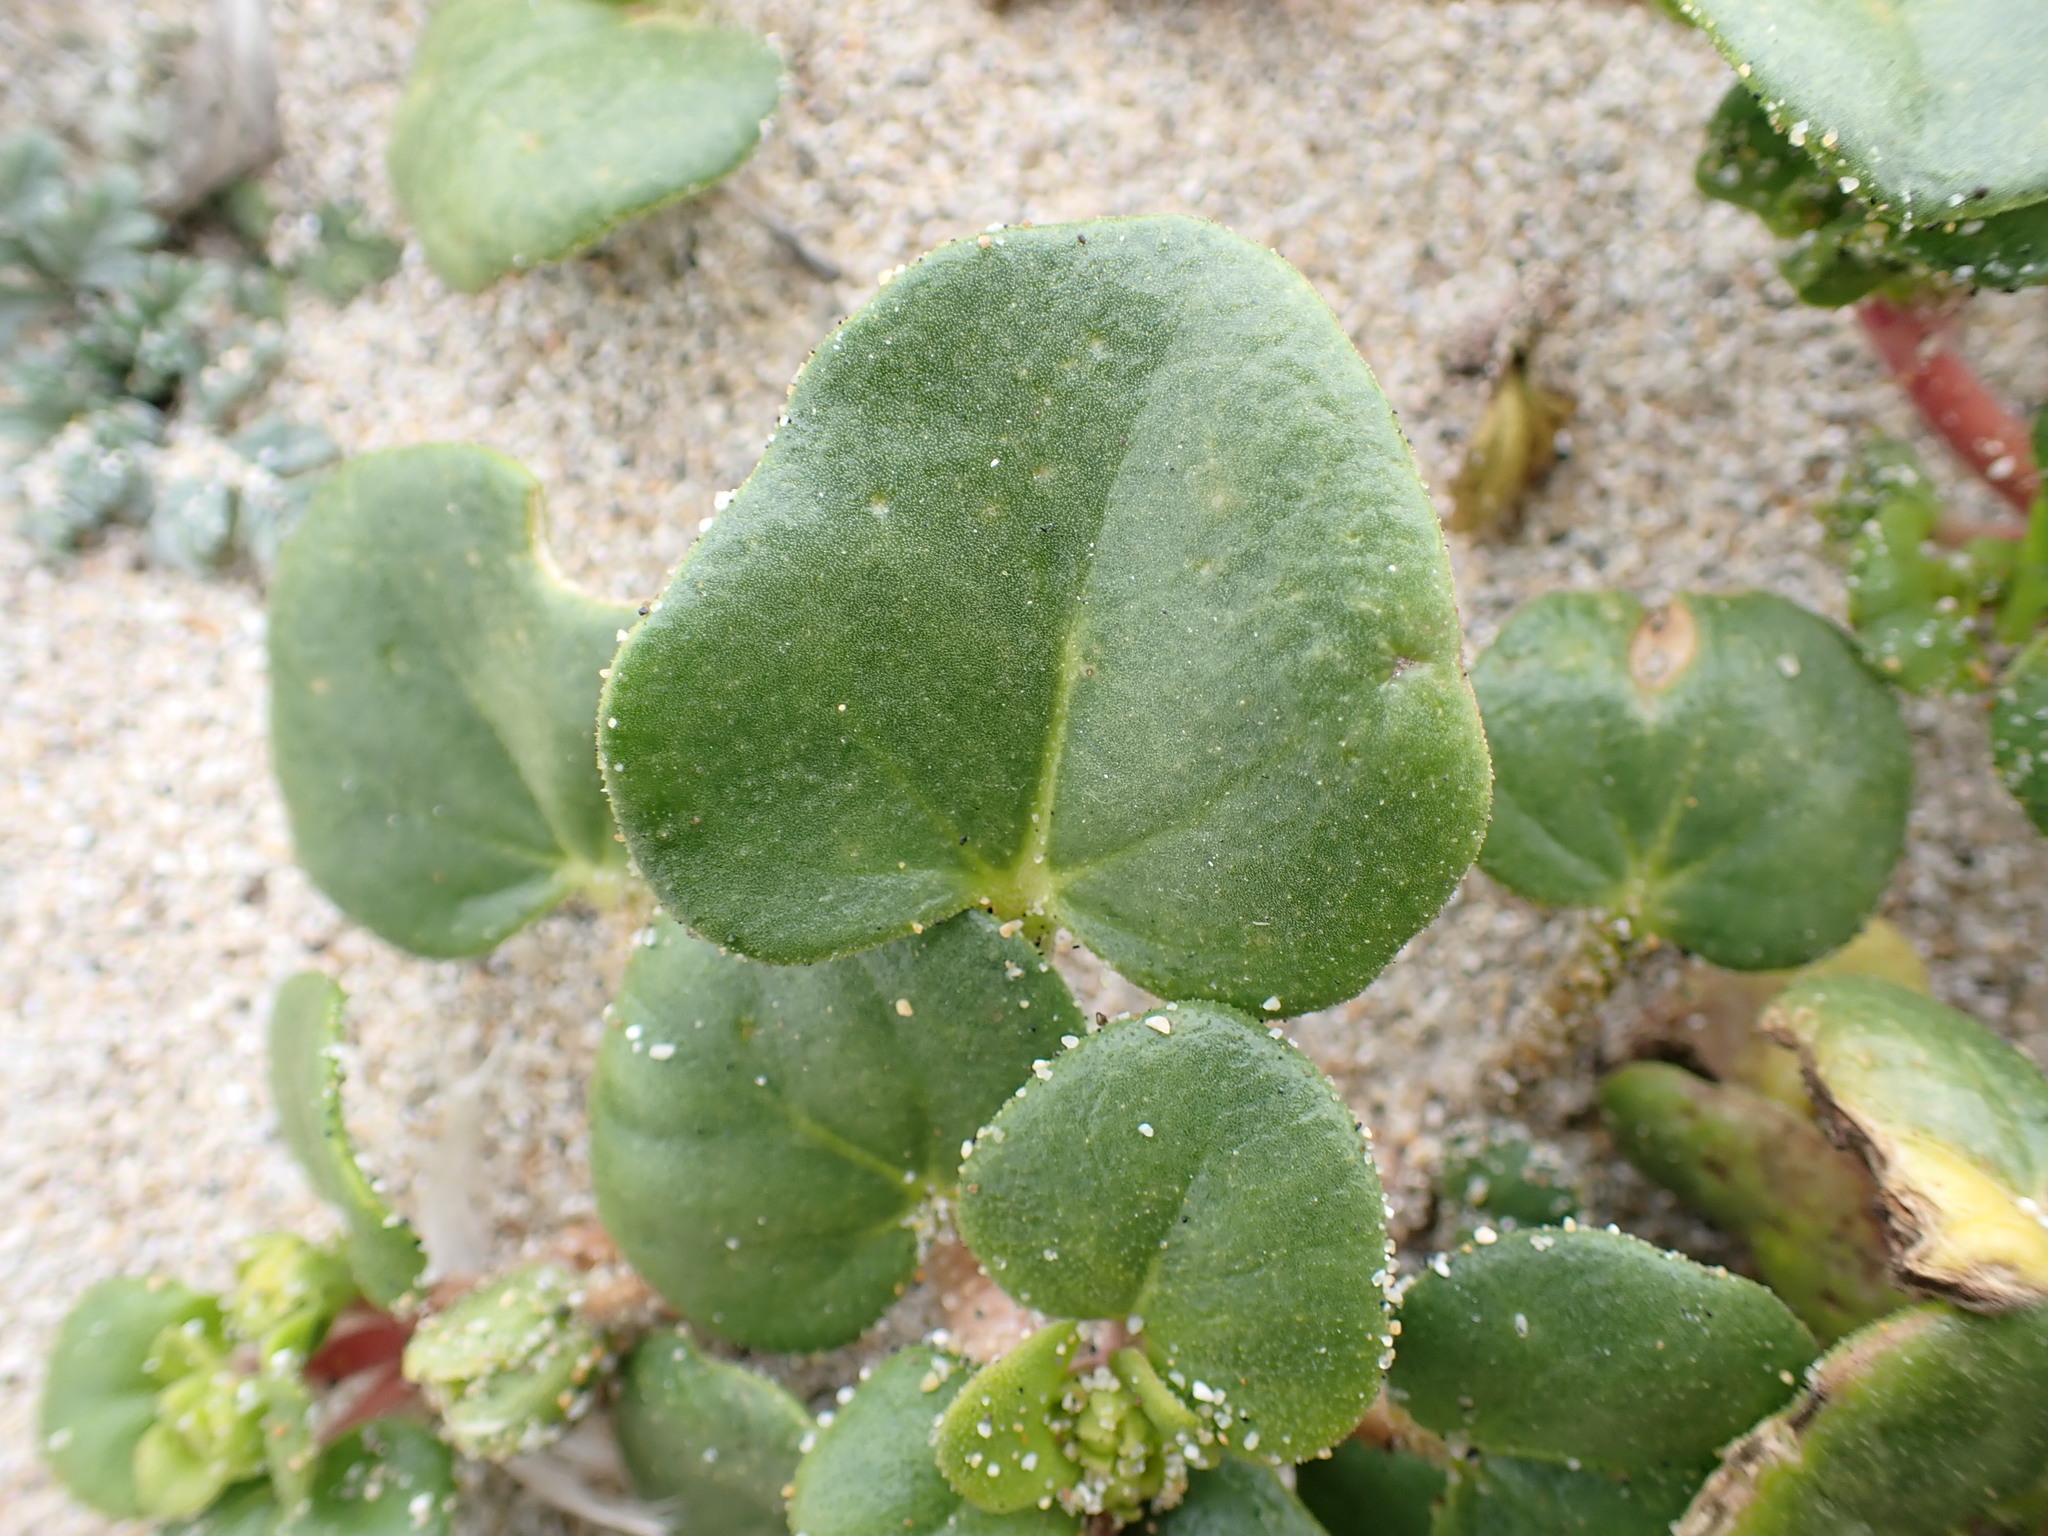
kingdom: Plantae
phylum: Tracheophyta
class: Magnoliopsida
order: Caryophyllales
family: Nyctaginaceae
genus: Abronia
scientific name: Abronia latifolia
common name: Yellow sand-verbena
